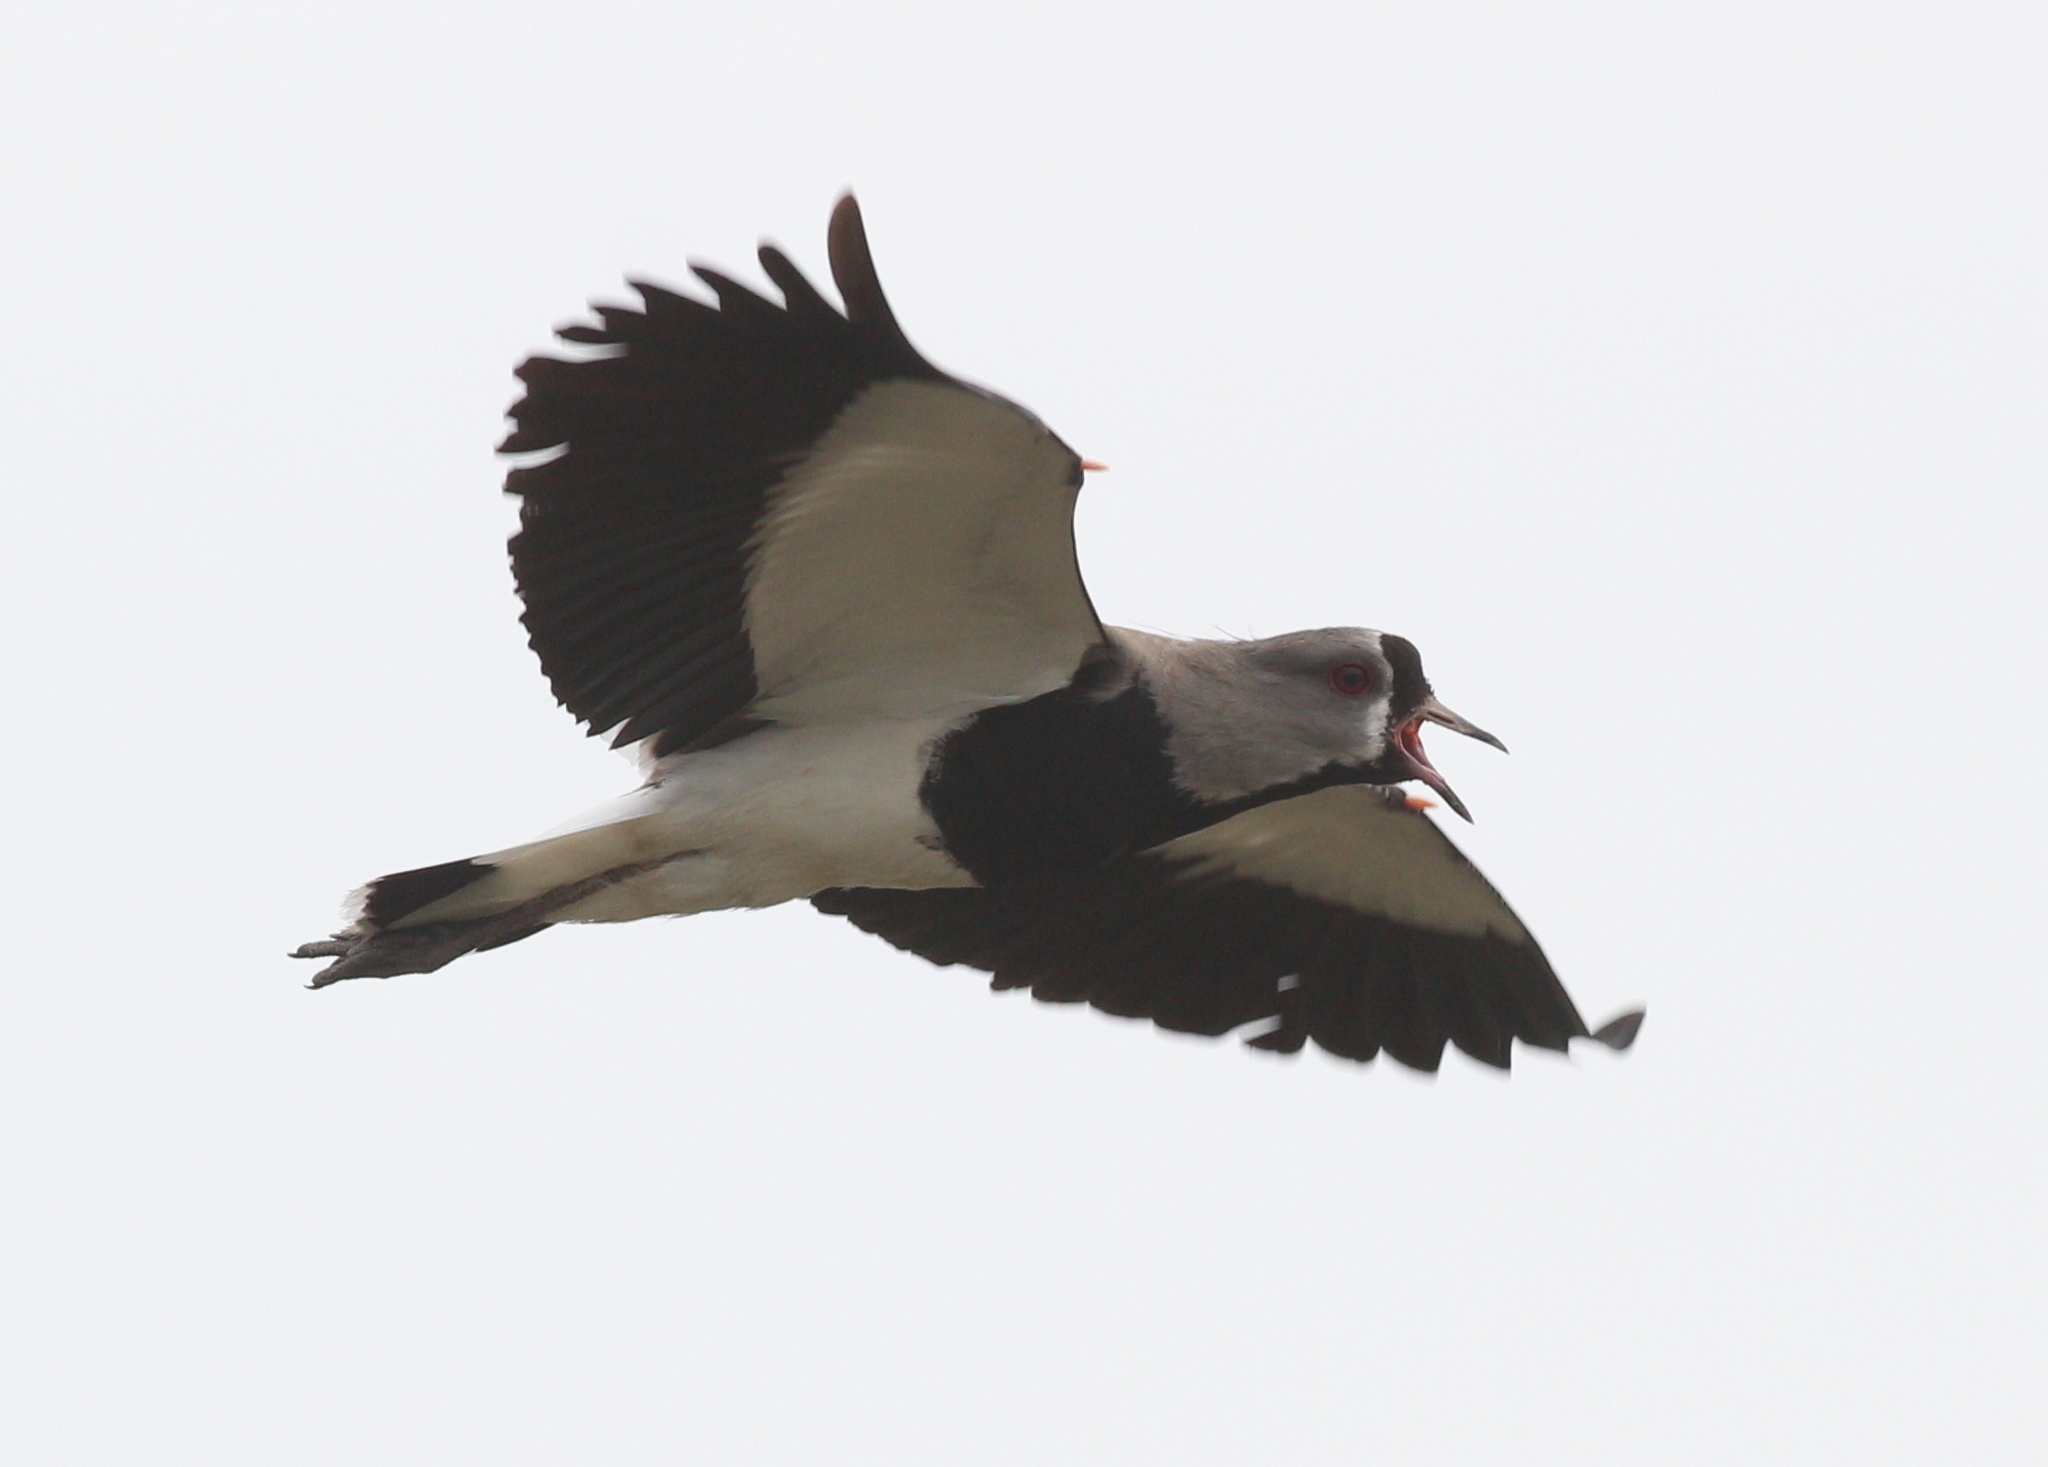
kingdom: Animalia
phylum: Chordata
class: Aves
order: Charadriiformes
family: Charadriidae
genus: Vanellus
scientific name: Vanellus chilensis
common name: Southern lapwing
